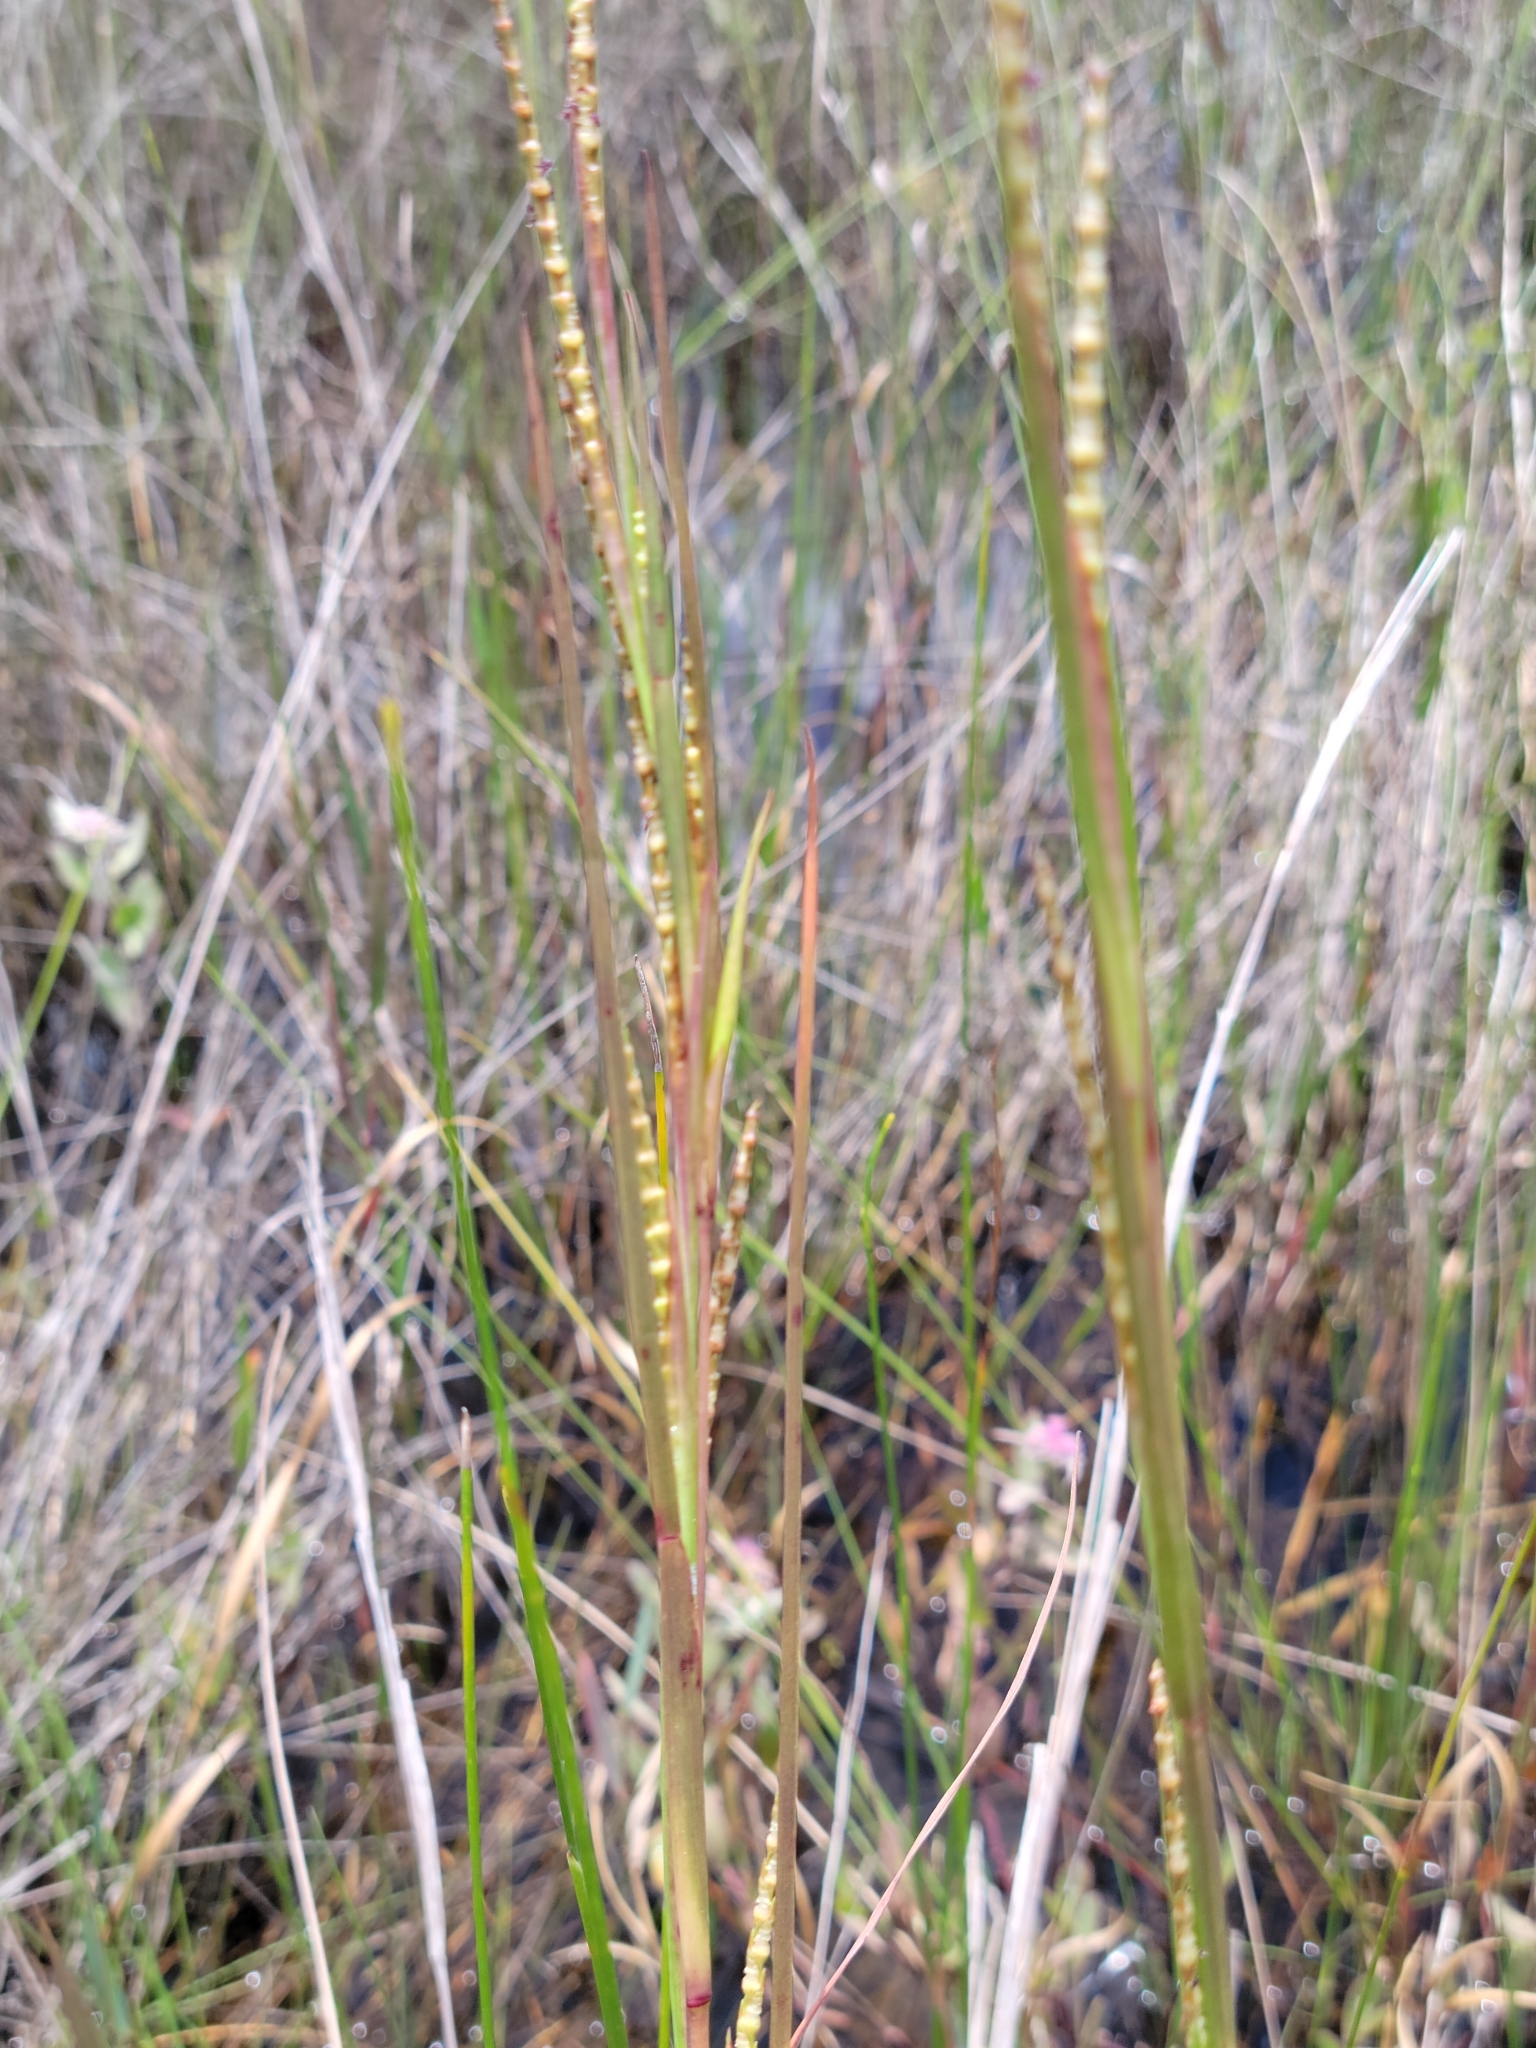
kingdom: Plantae
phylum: Tracheophyta
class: Liliopsida
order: Poales
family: Poaceae
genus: Rottboellia
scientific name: Rottboellia rugosa
